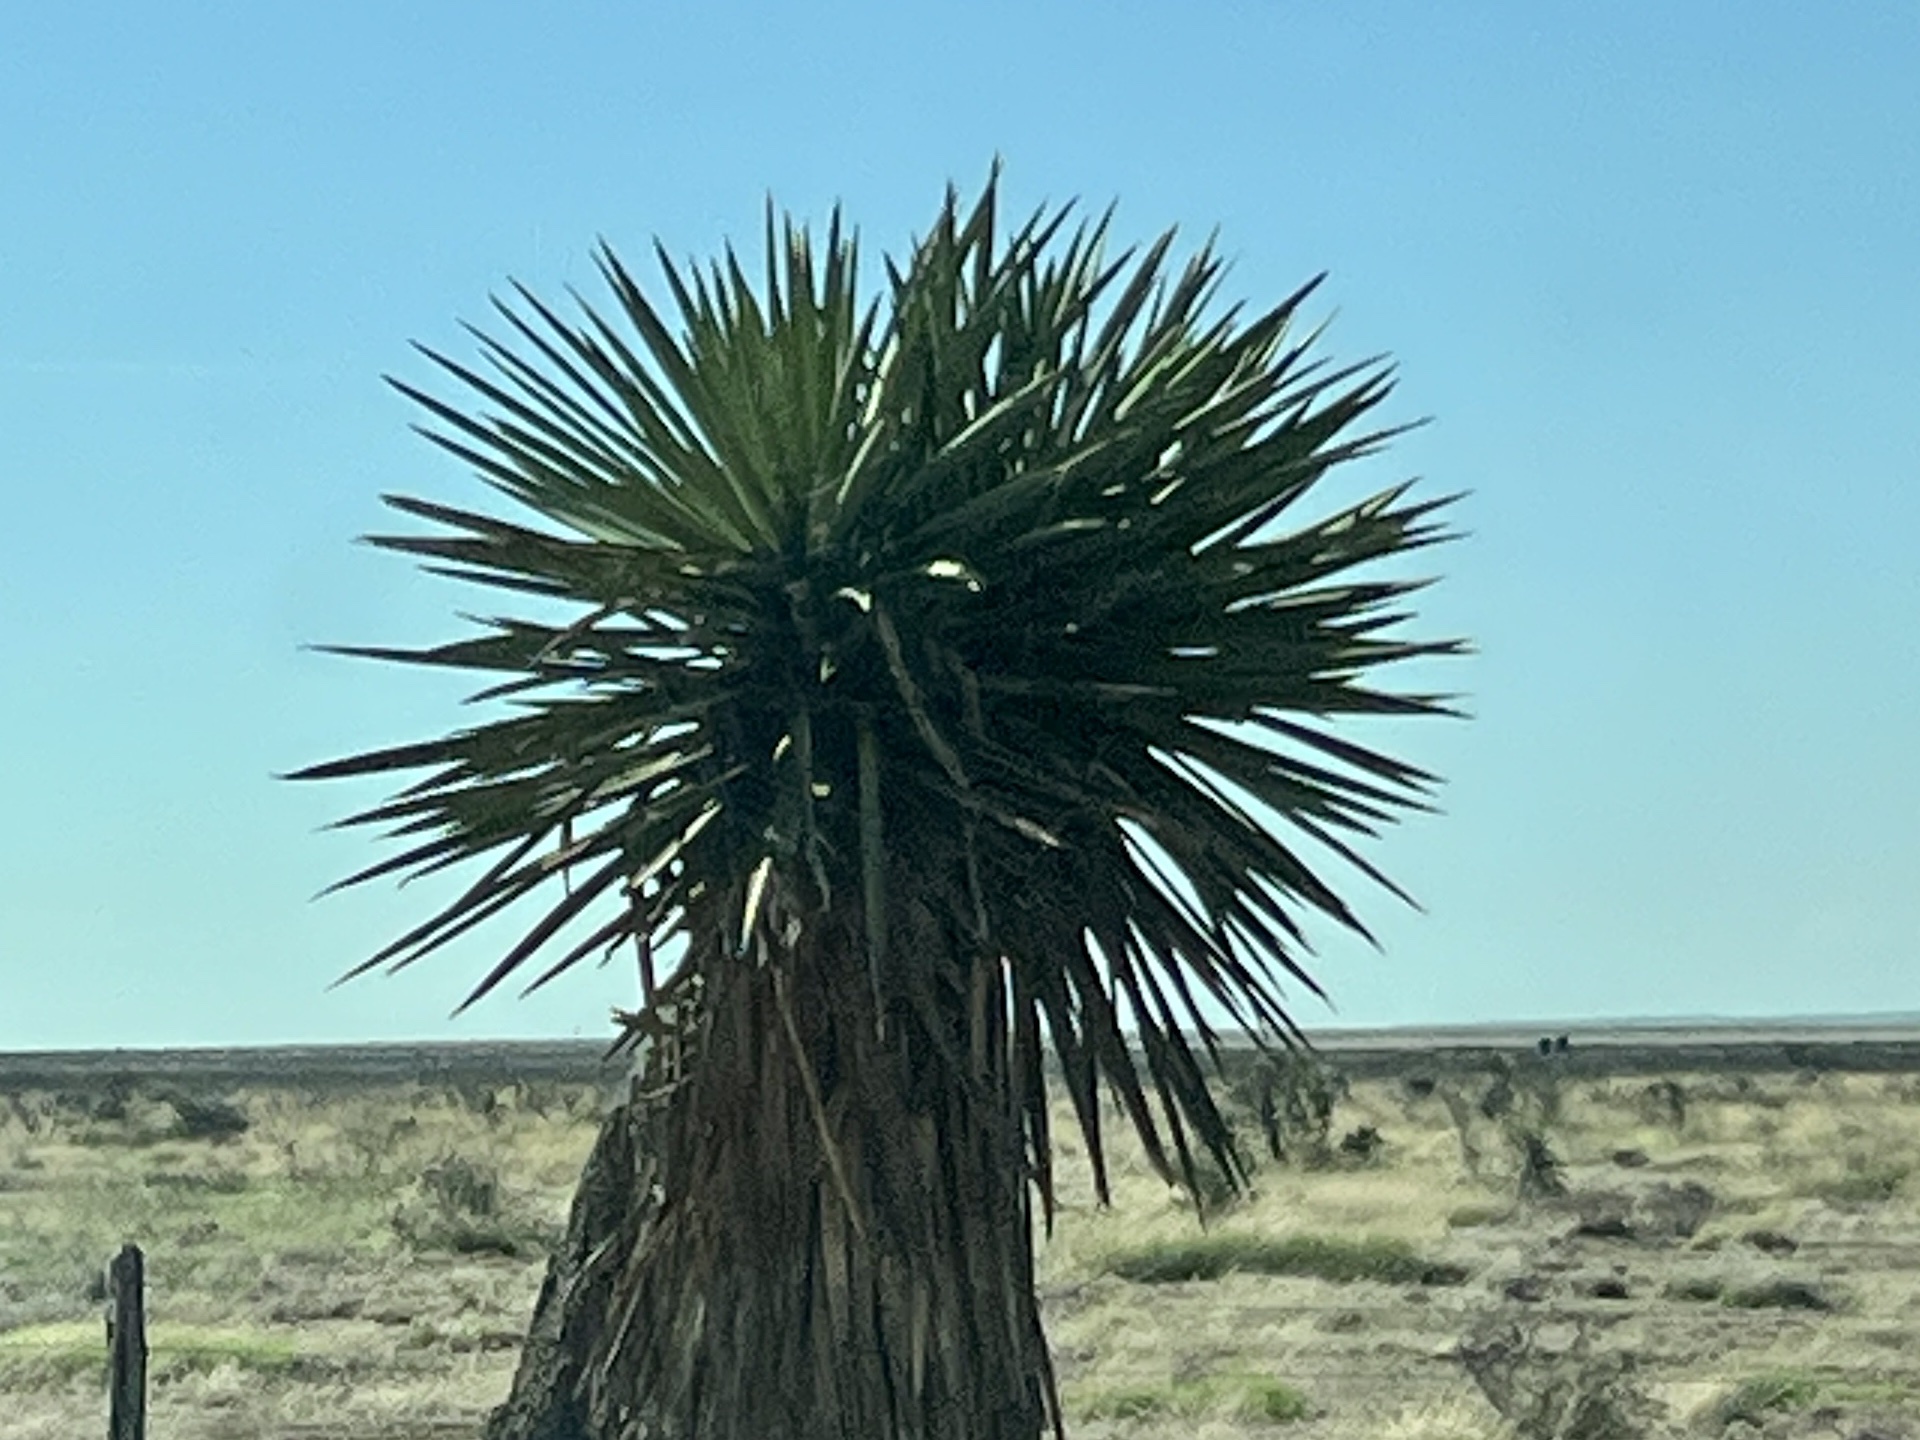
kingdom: Plantae
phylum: Tracheophyta
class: Liliopsida
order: Asparagales
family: Asparagaceae
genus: Yucca
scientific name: Yucca faxoniana
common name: Spanish dagger
